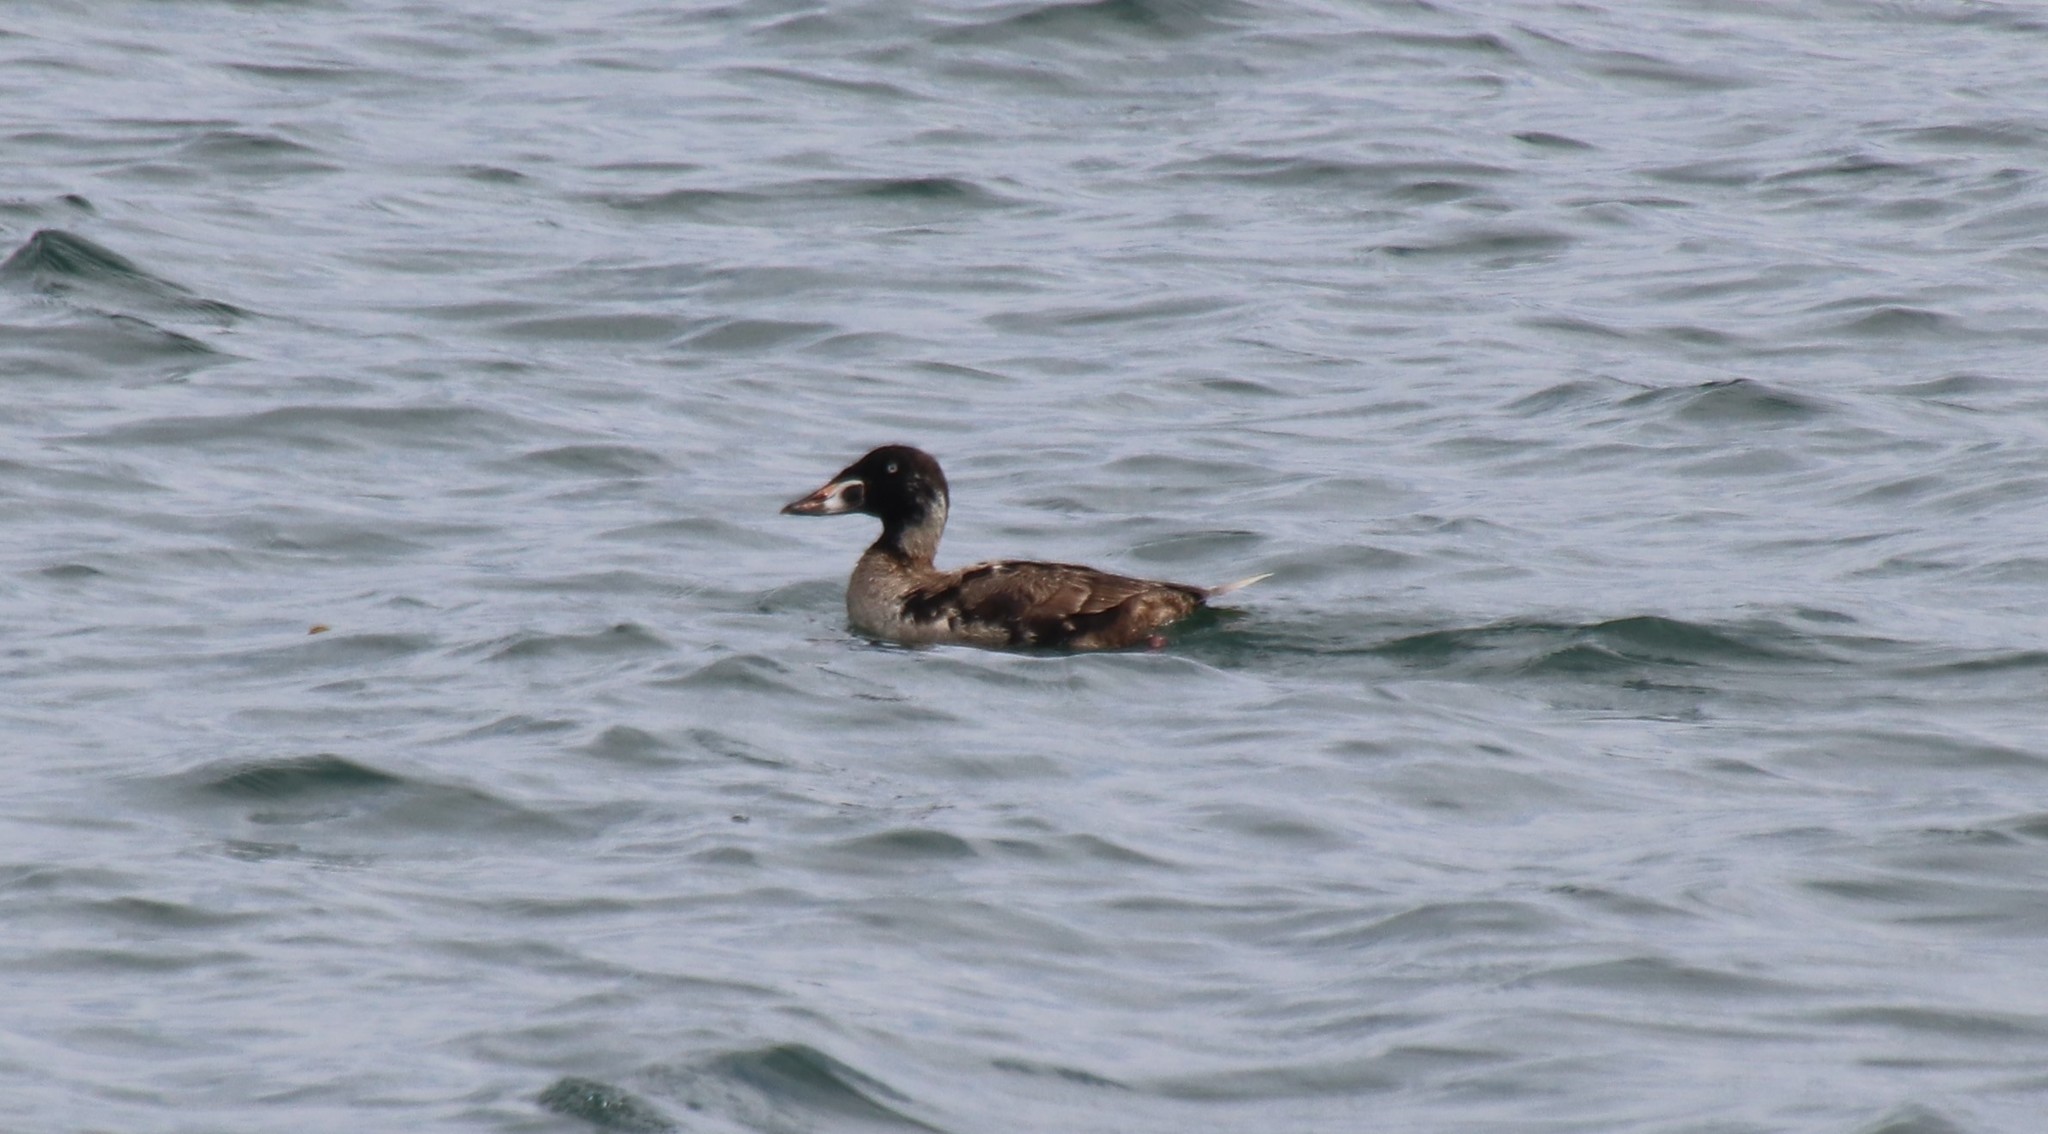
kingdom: Animalia
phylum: Chordata
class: Aves
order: Anseriformes
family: Anatidae
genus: Melanitta
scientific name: Melanitta perspicillata
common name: Surf scoter
